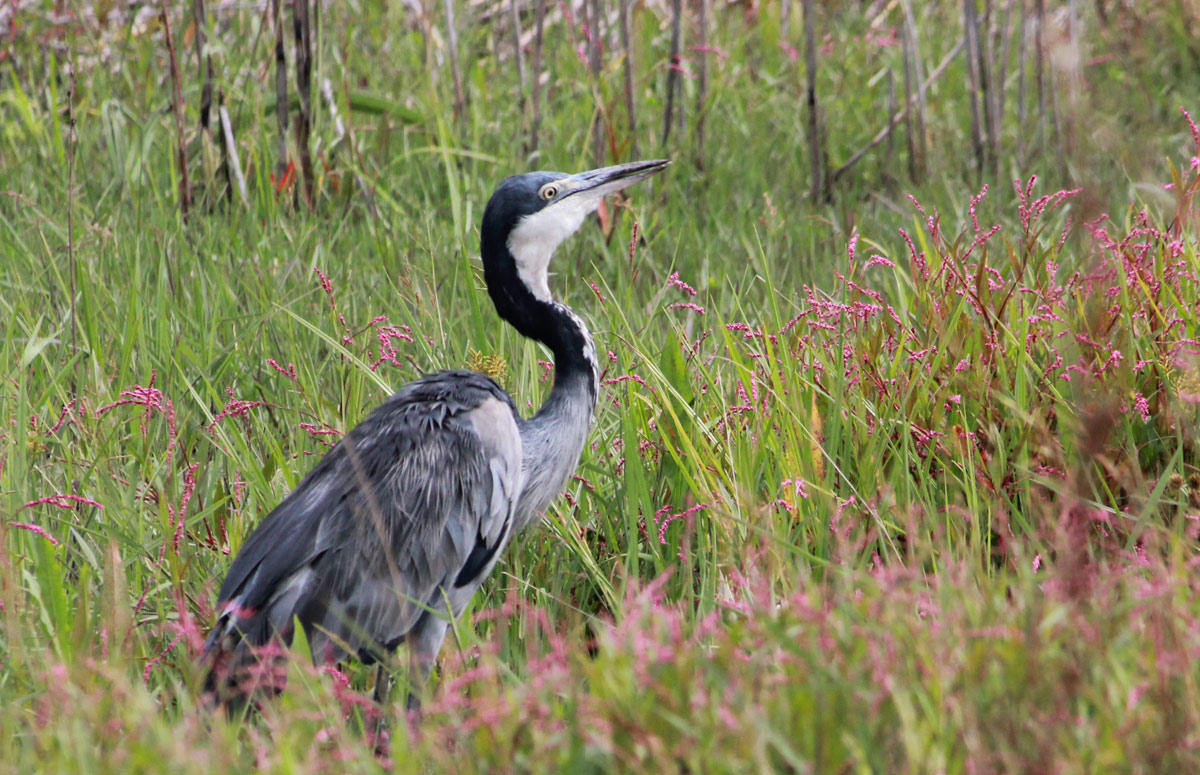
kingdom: Animalia
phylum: Chordata
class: Aves
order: Pelecaniformes
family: Ardeidae
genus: Ardea
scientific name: Ardea melanocephala
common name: Black-headed heron
